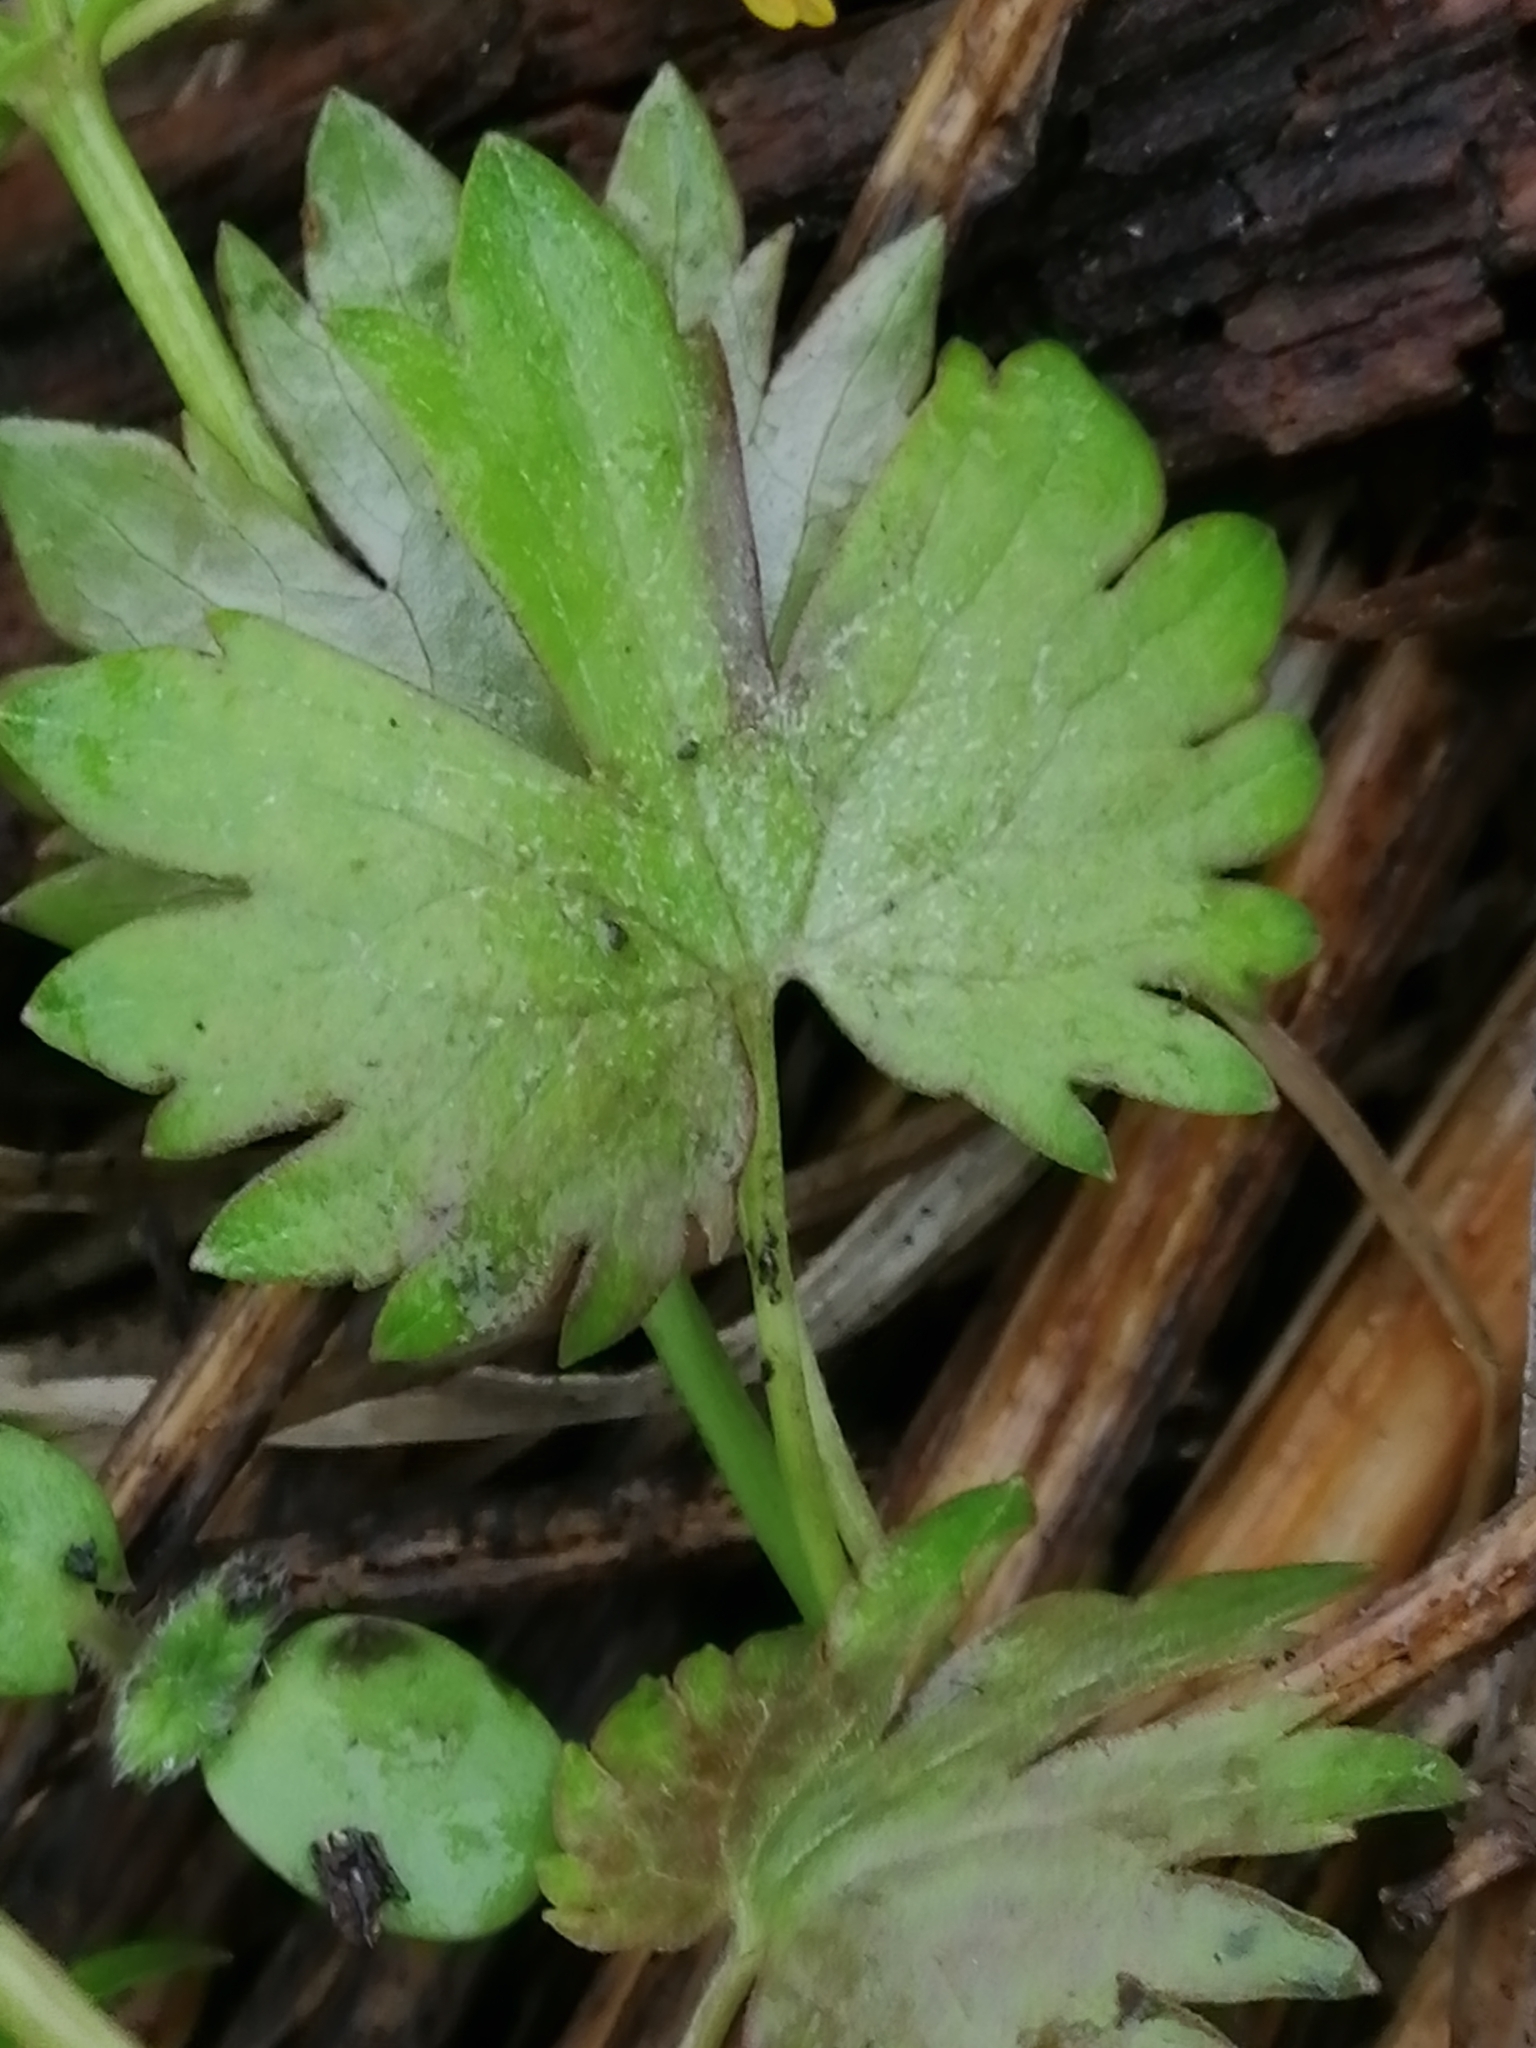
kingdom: Plantae
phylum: Tracheophyta
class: Magnoliopsida
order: Ranunculales
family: Ranunculaceae
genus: Ranunculus
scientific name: Ranunculus monophyllus
